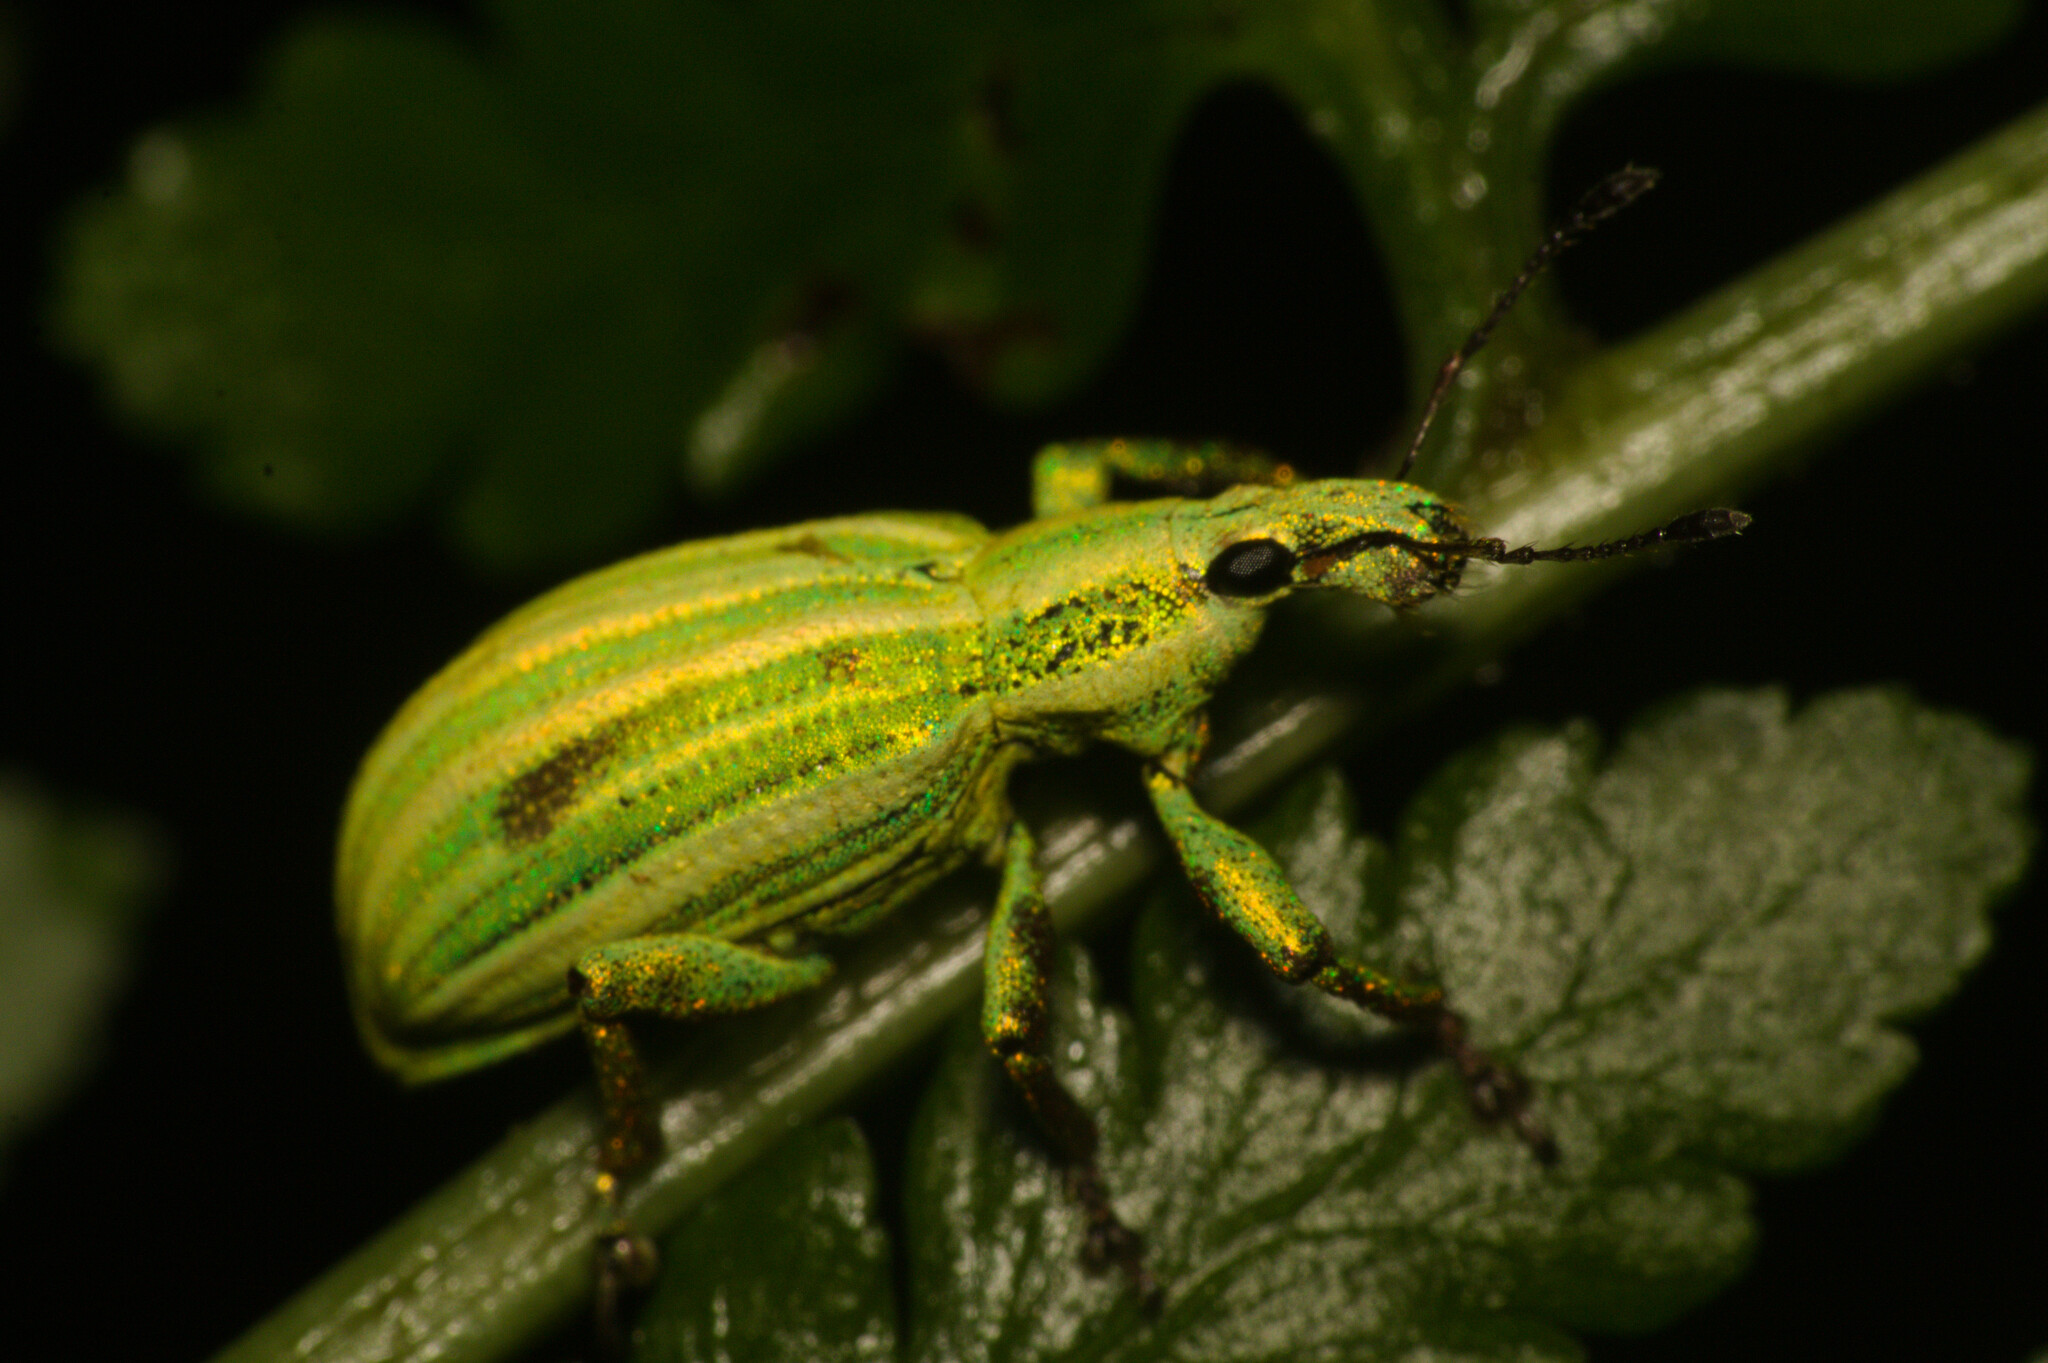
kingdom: Animalia
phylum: Arthropoda
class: Insecta
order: Coleoptera
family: Curculionidae
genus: Phaops
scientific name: Phaops thunbergii
